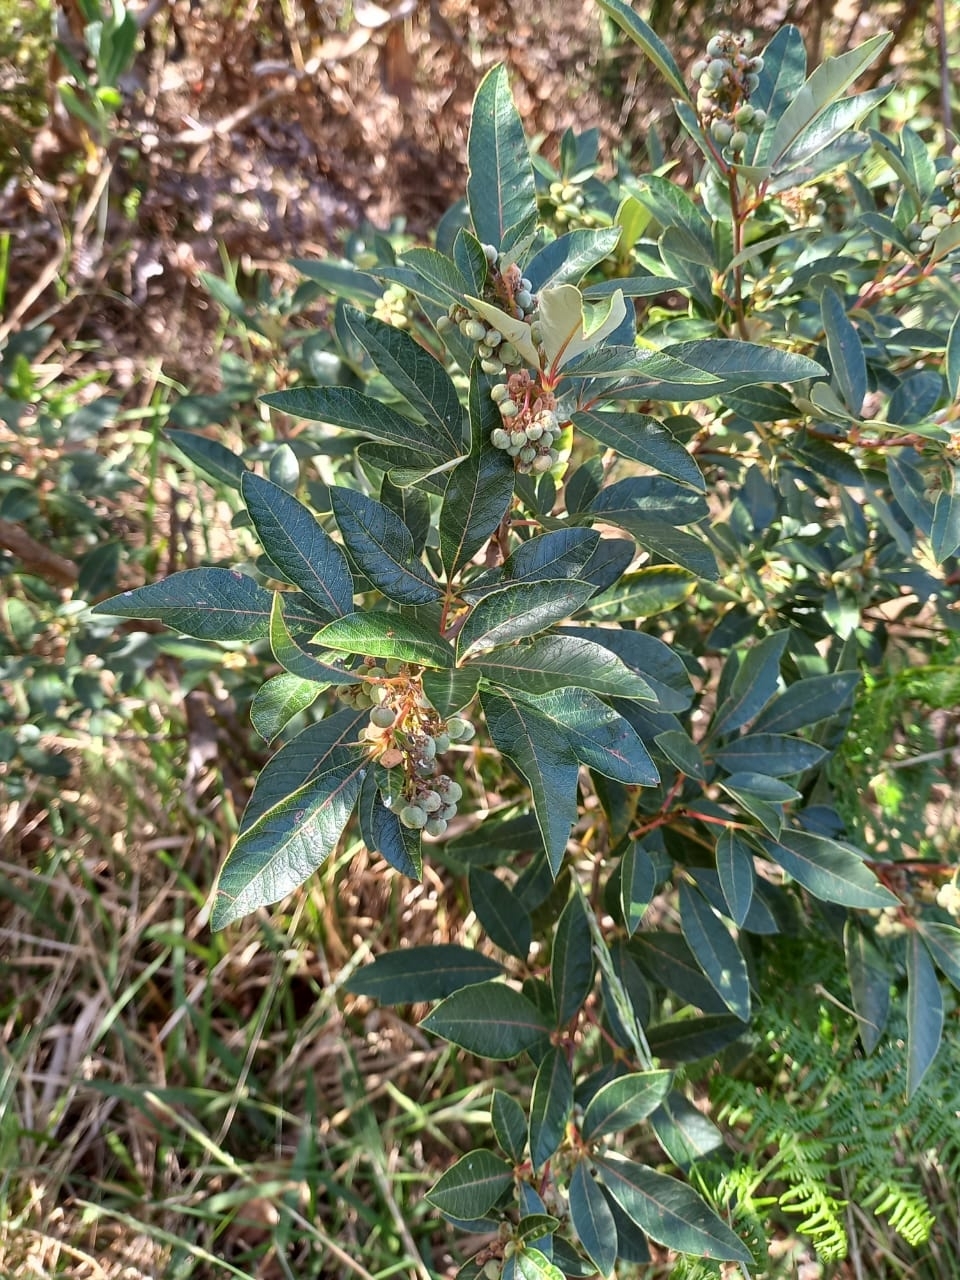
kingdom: Plantae
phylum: Tracheophyta
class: Magnoliopsida
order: Sapindales
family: Anacardiaceae
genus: Searsia
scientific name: Searsia tomentosa
